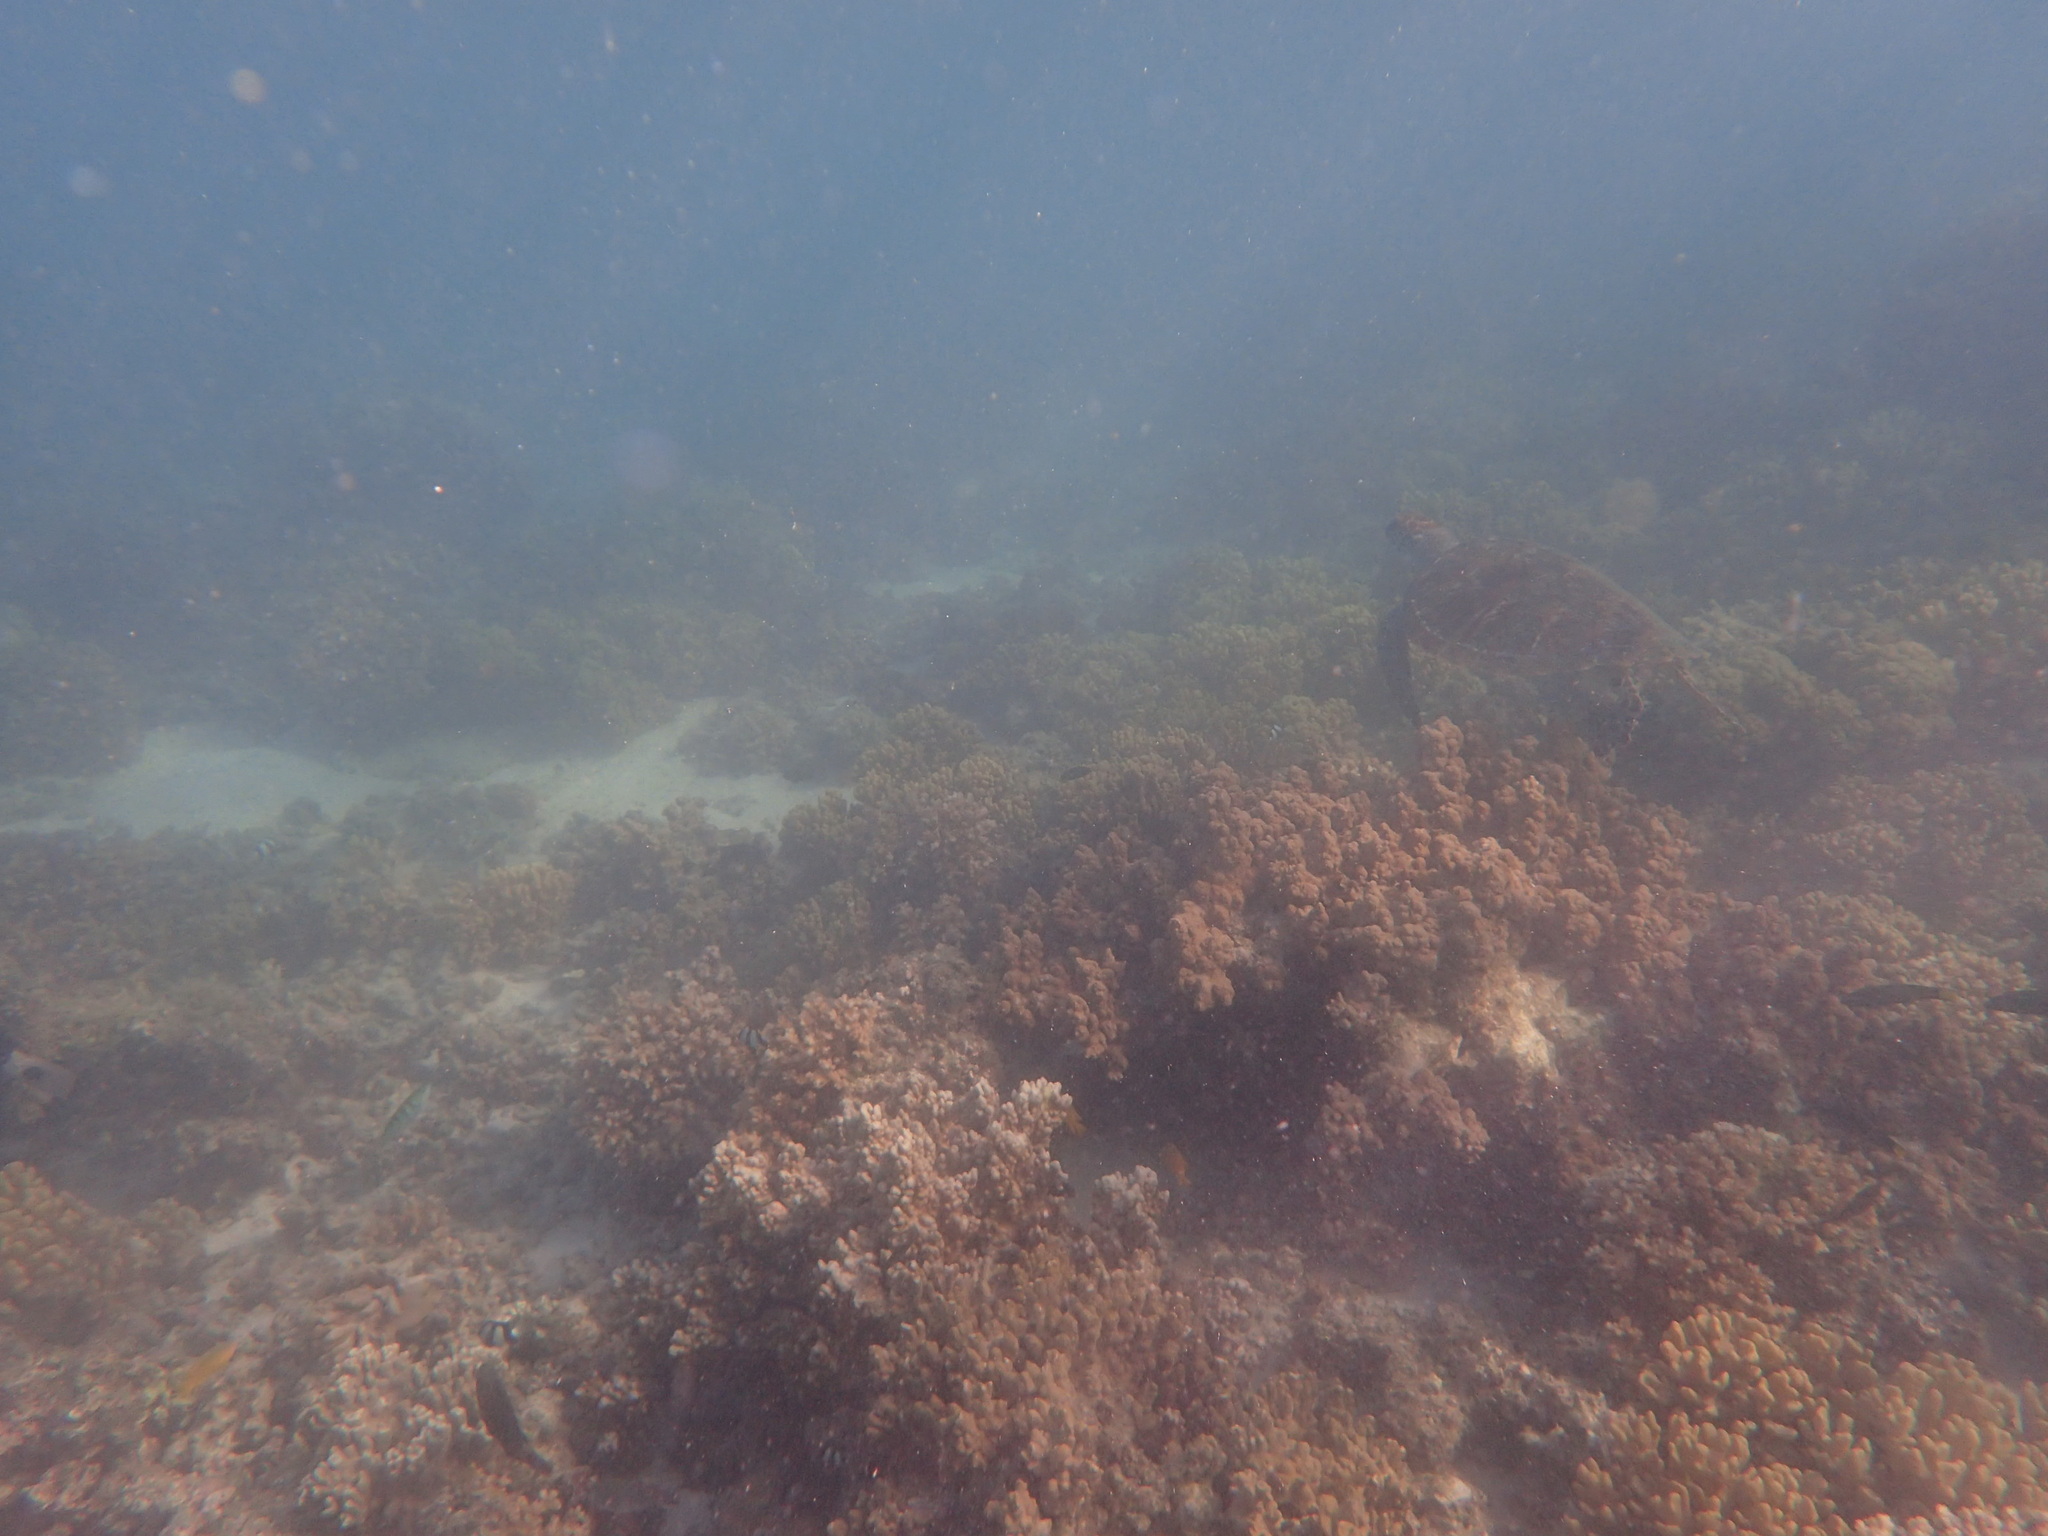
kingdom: Animalia
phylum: Chordata
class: Testudines
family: Cheloniidae
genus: Chelonia
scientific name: Chelonia mydas
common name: Green turtle
